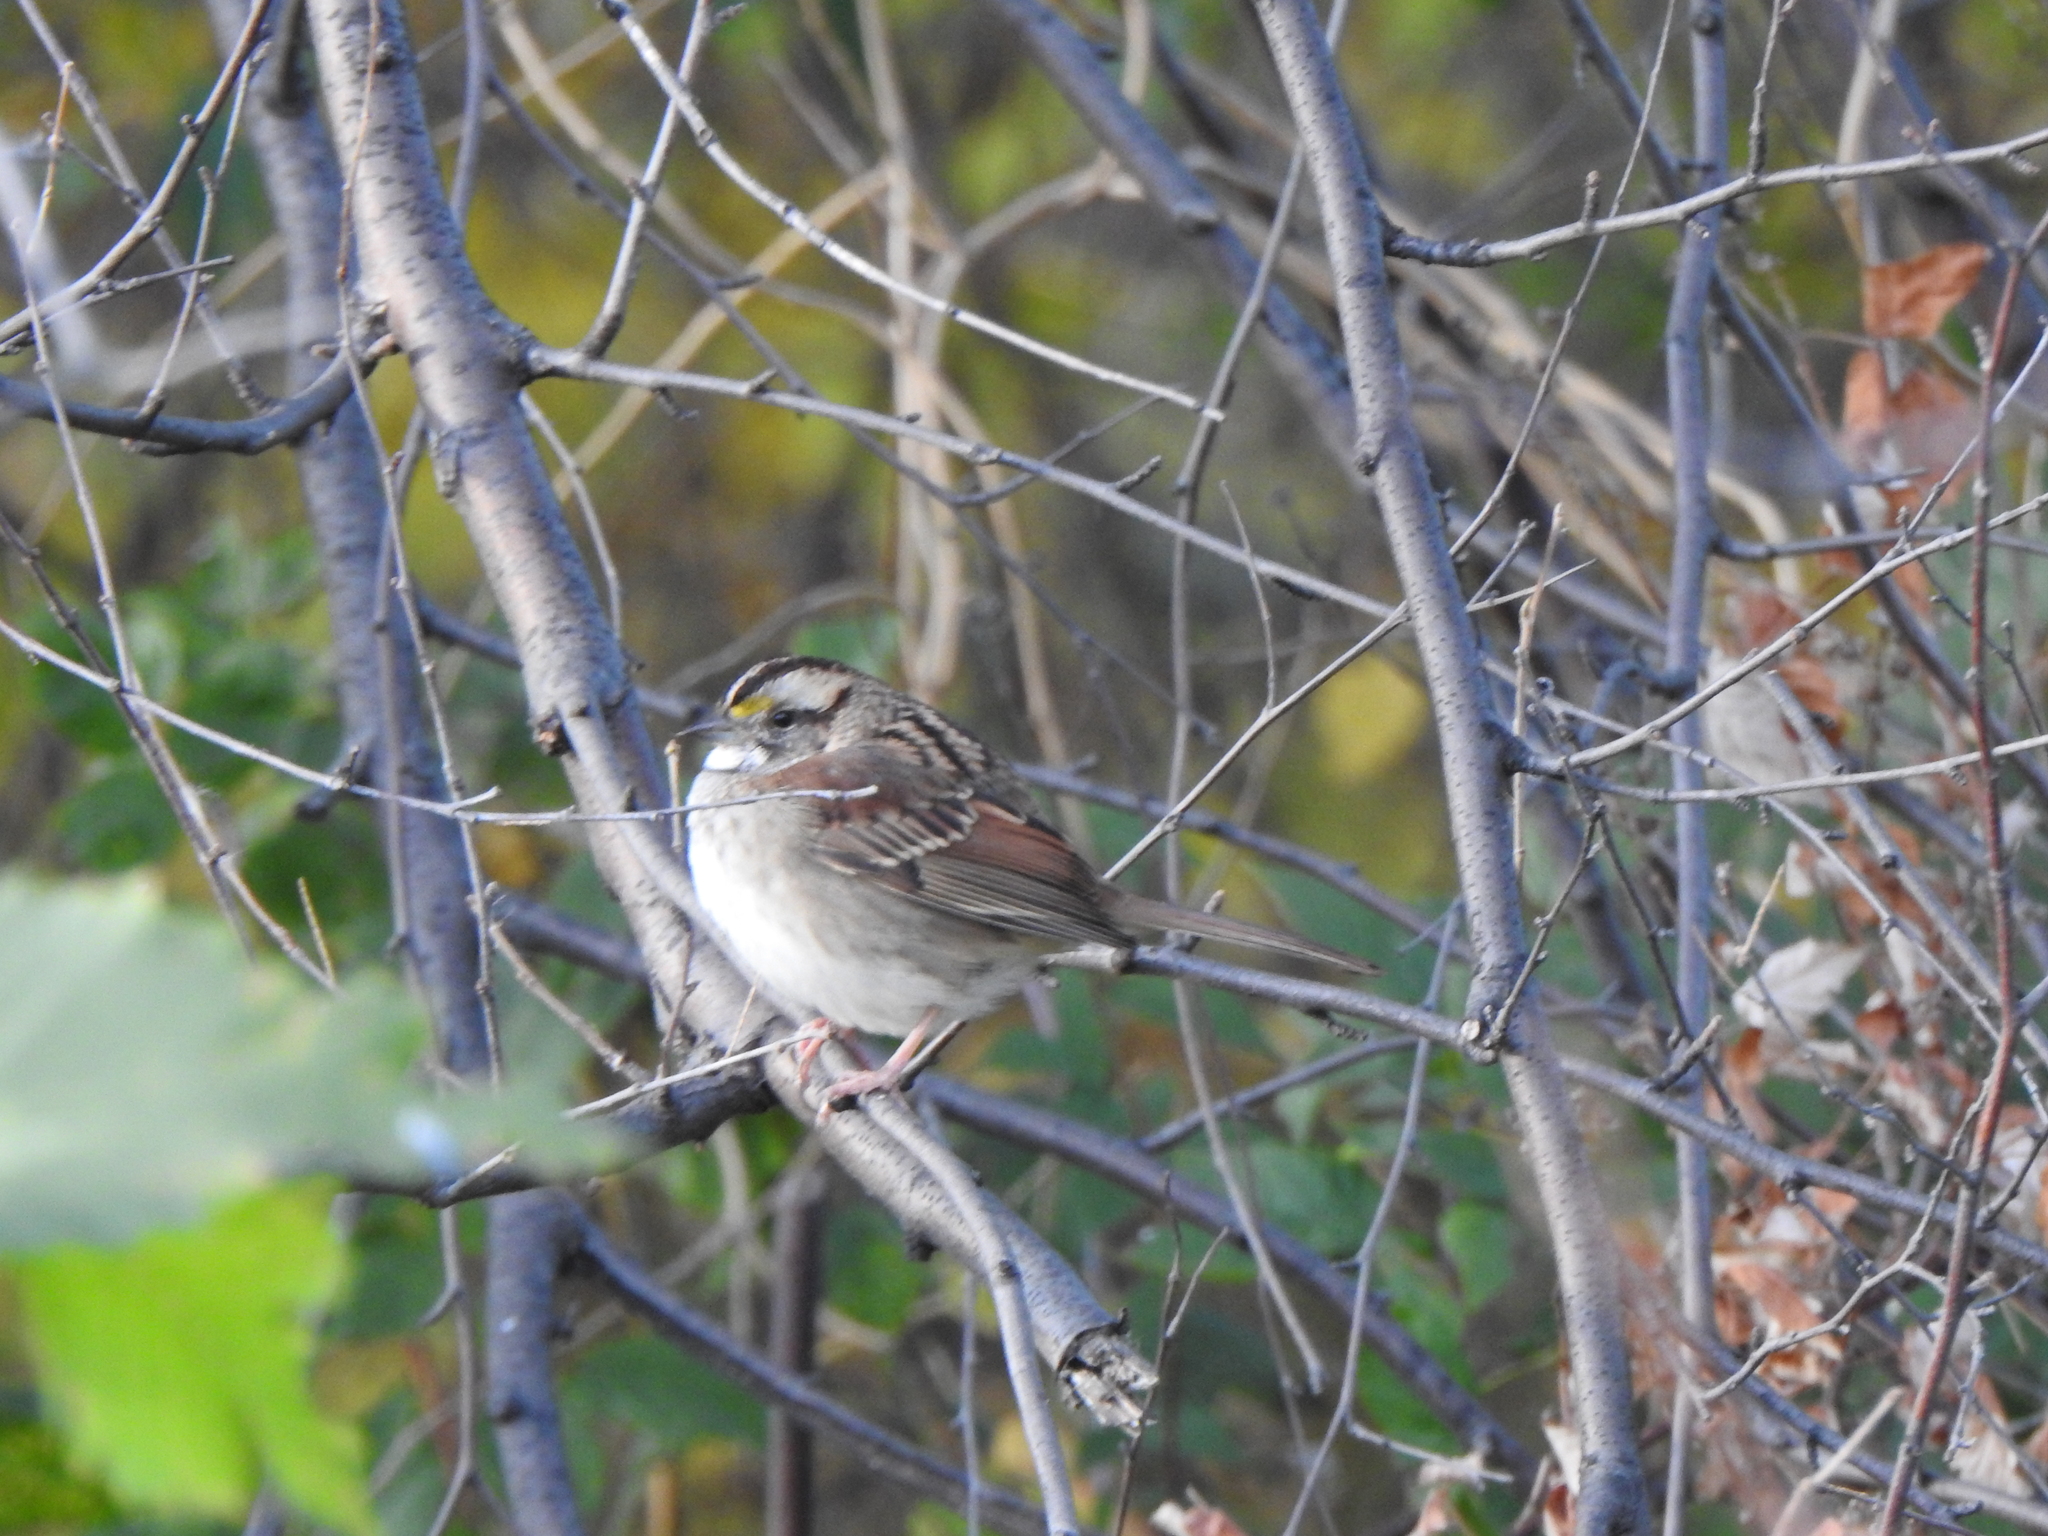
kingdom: Animalia
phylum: Chordata
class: Aves
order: Passeriformes
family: Passerellidae
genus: Zonotrichia
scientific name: Zonotrichia albicollis
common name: White-throated sparrow
